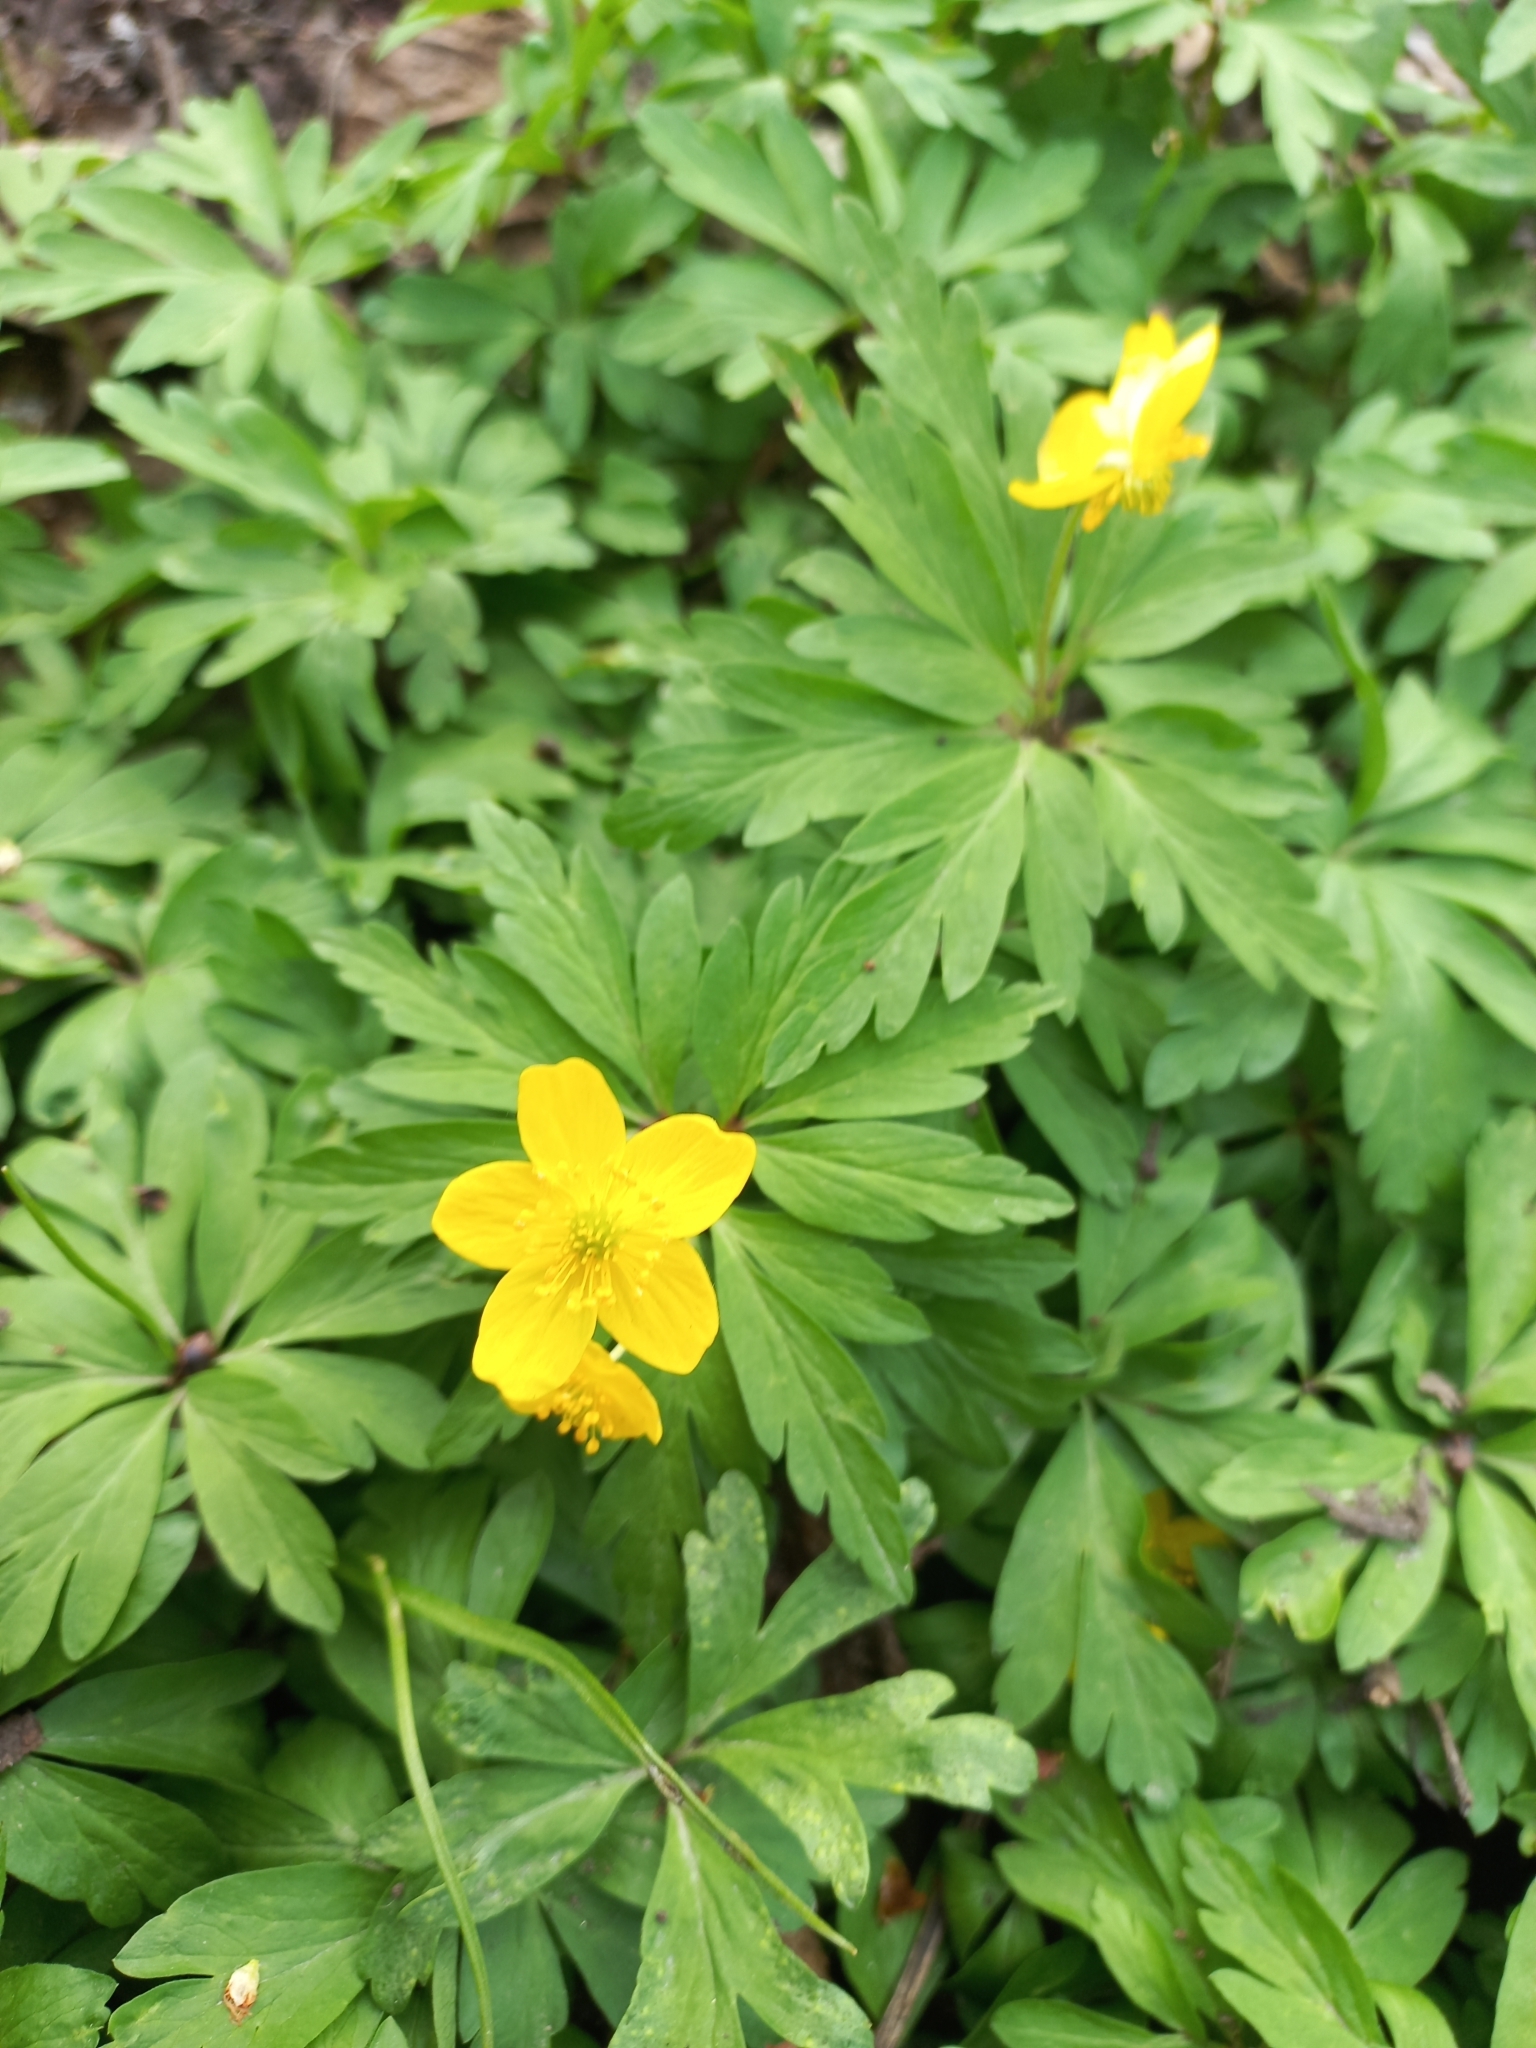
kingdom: Plantae
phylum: Tracheophyta
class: Magnoliopsida
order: Ranunculales
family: Ranunculaceae
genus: Anemone
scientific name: Anemone ranunculoides
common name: Yellow anemone
